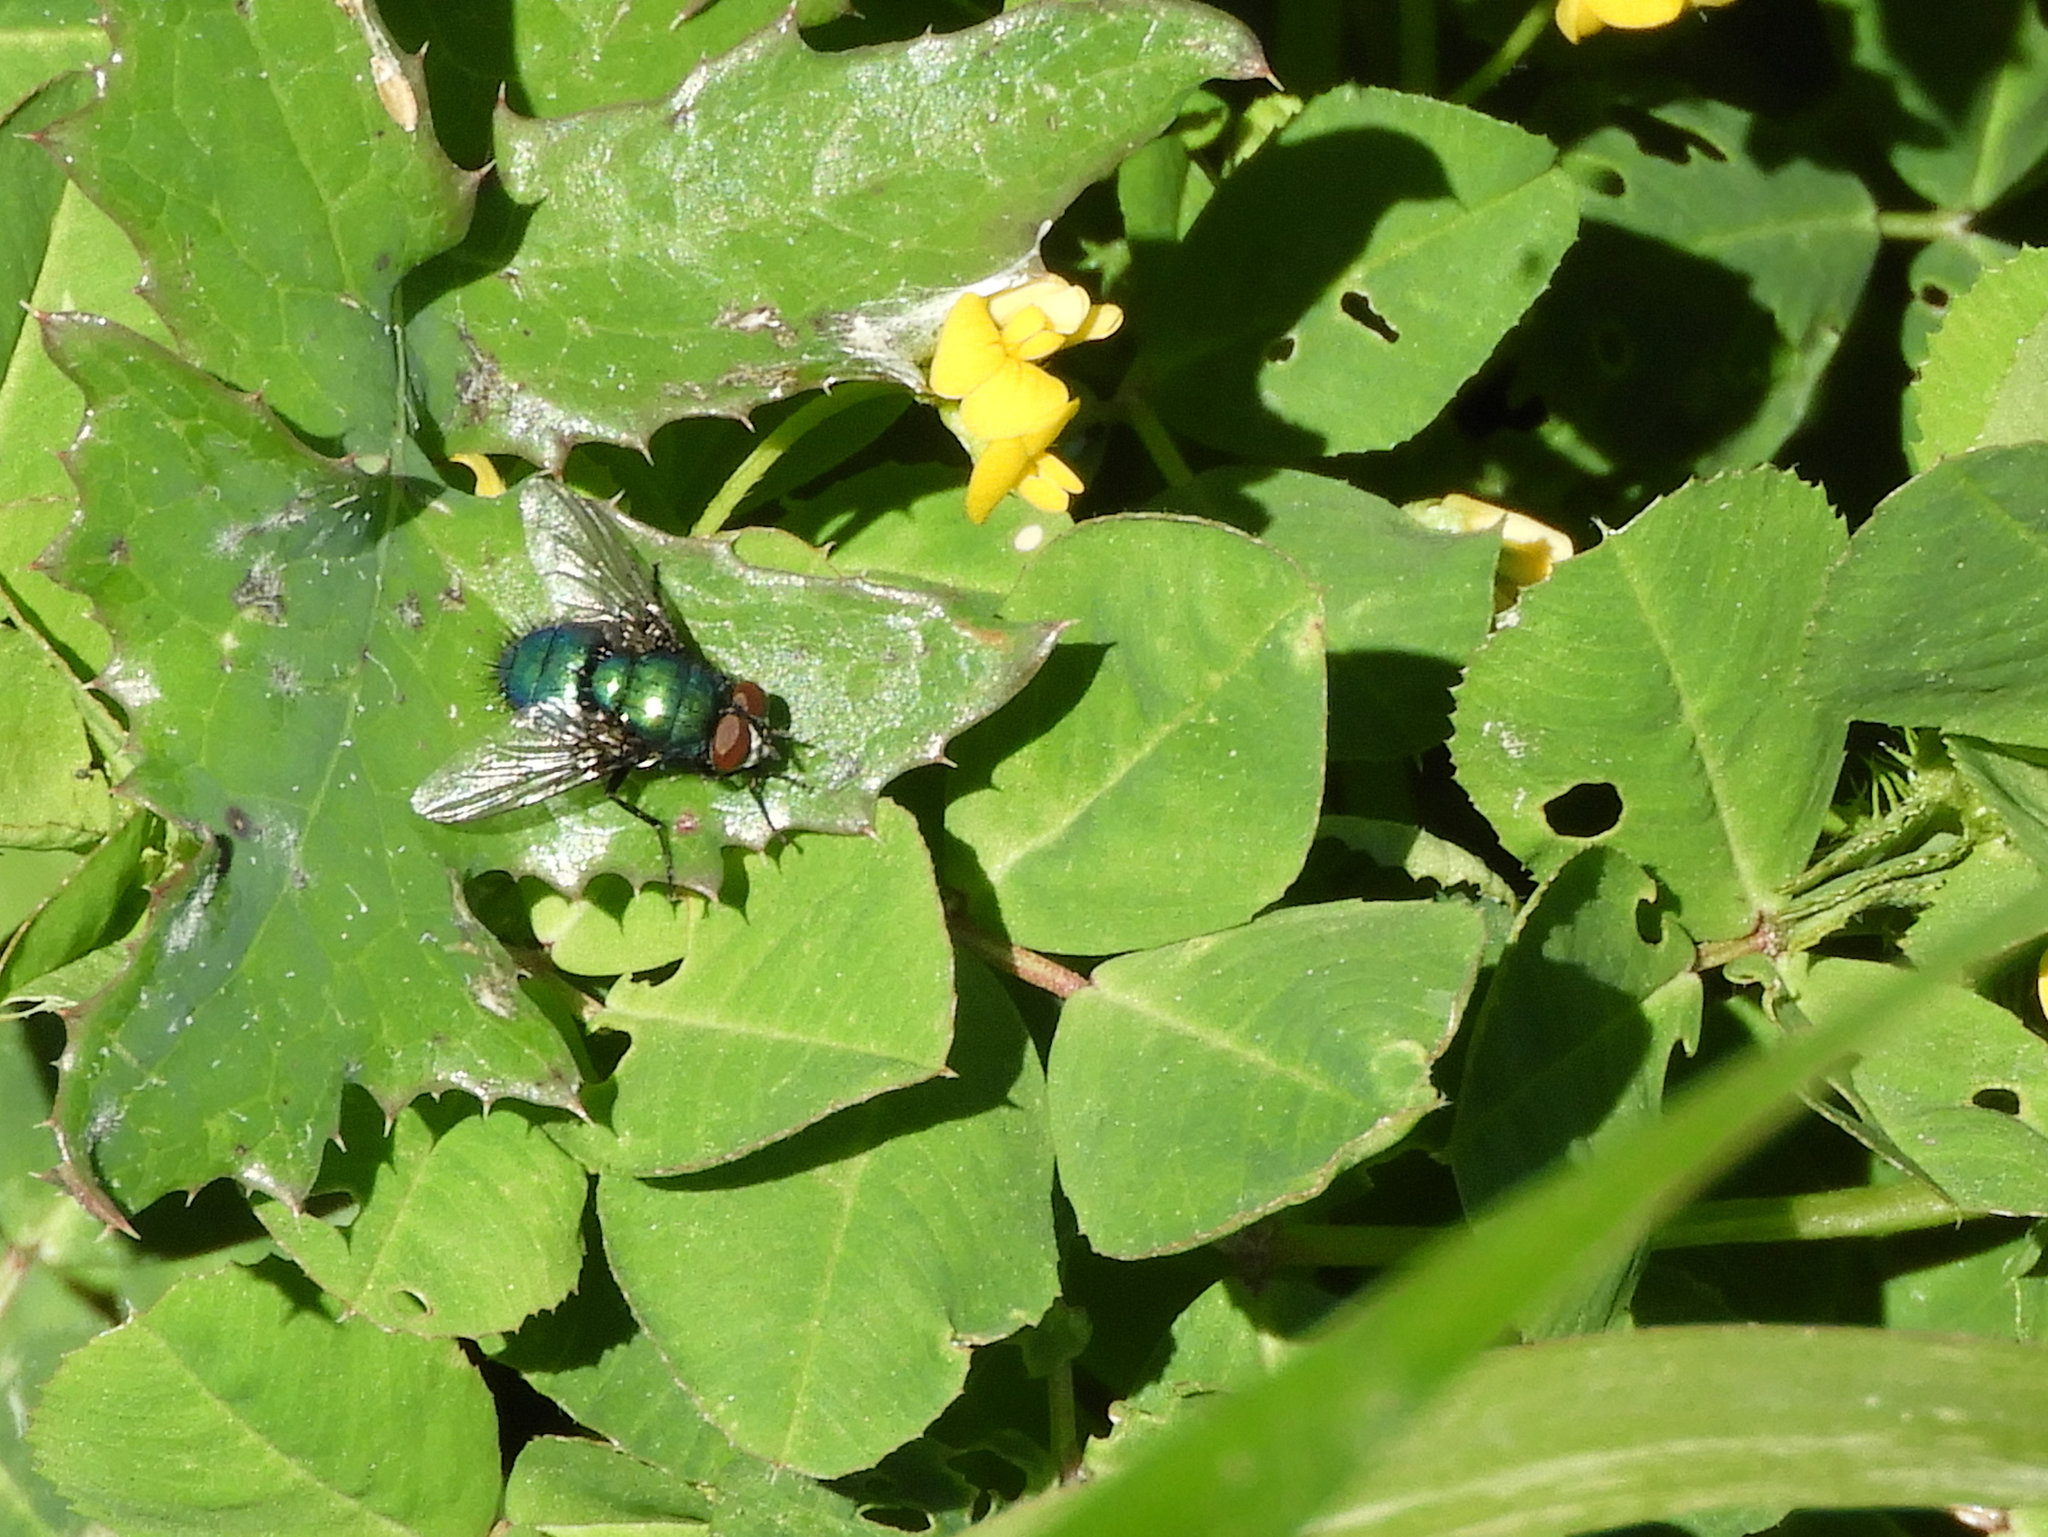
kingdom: Animalia
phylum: Arthropoda
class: Insecta
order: Diptera
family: Calliphoridae
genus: Lucilia
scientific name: Lucilia silvarum
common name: Marsh greenbottle
